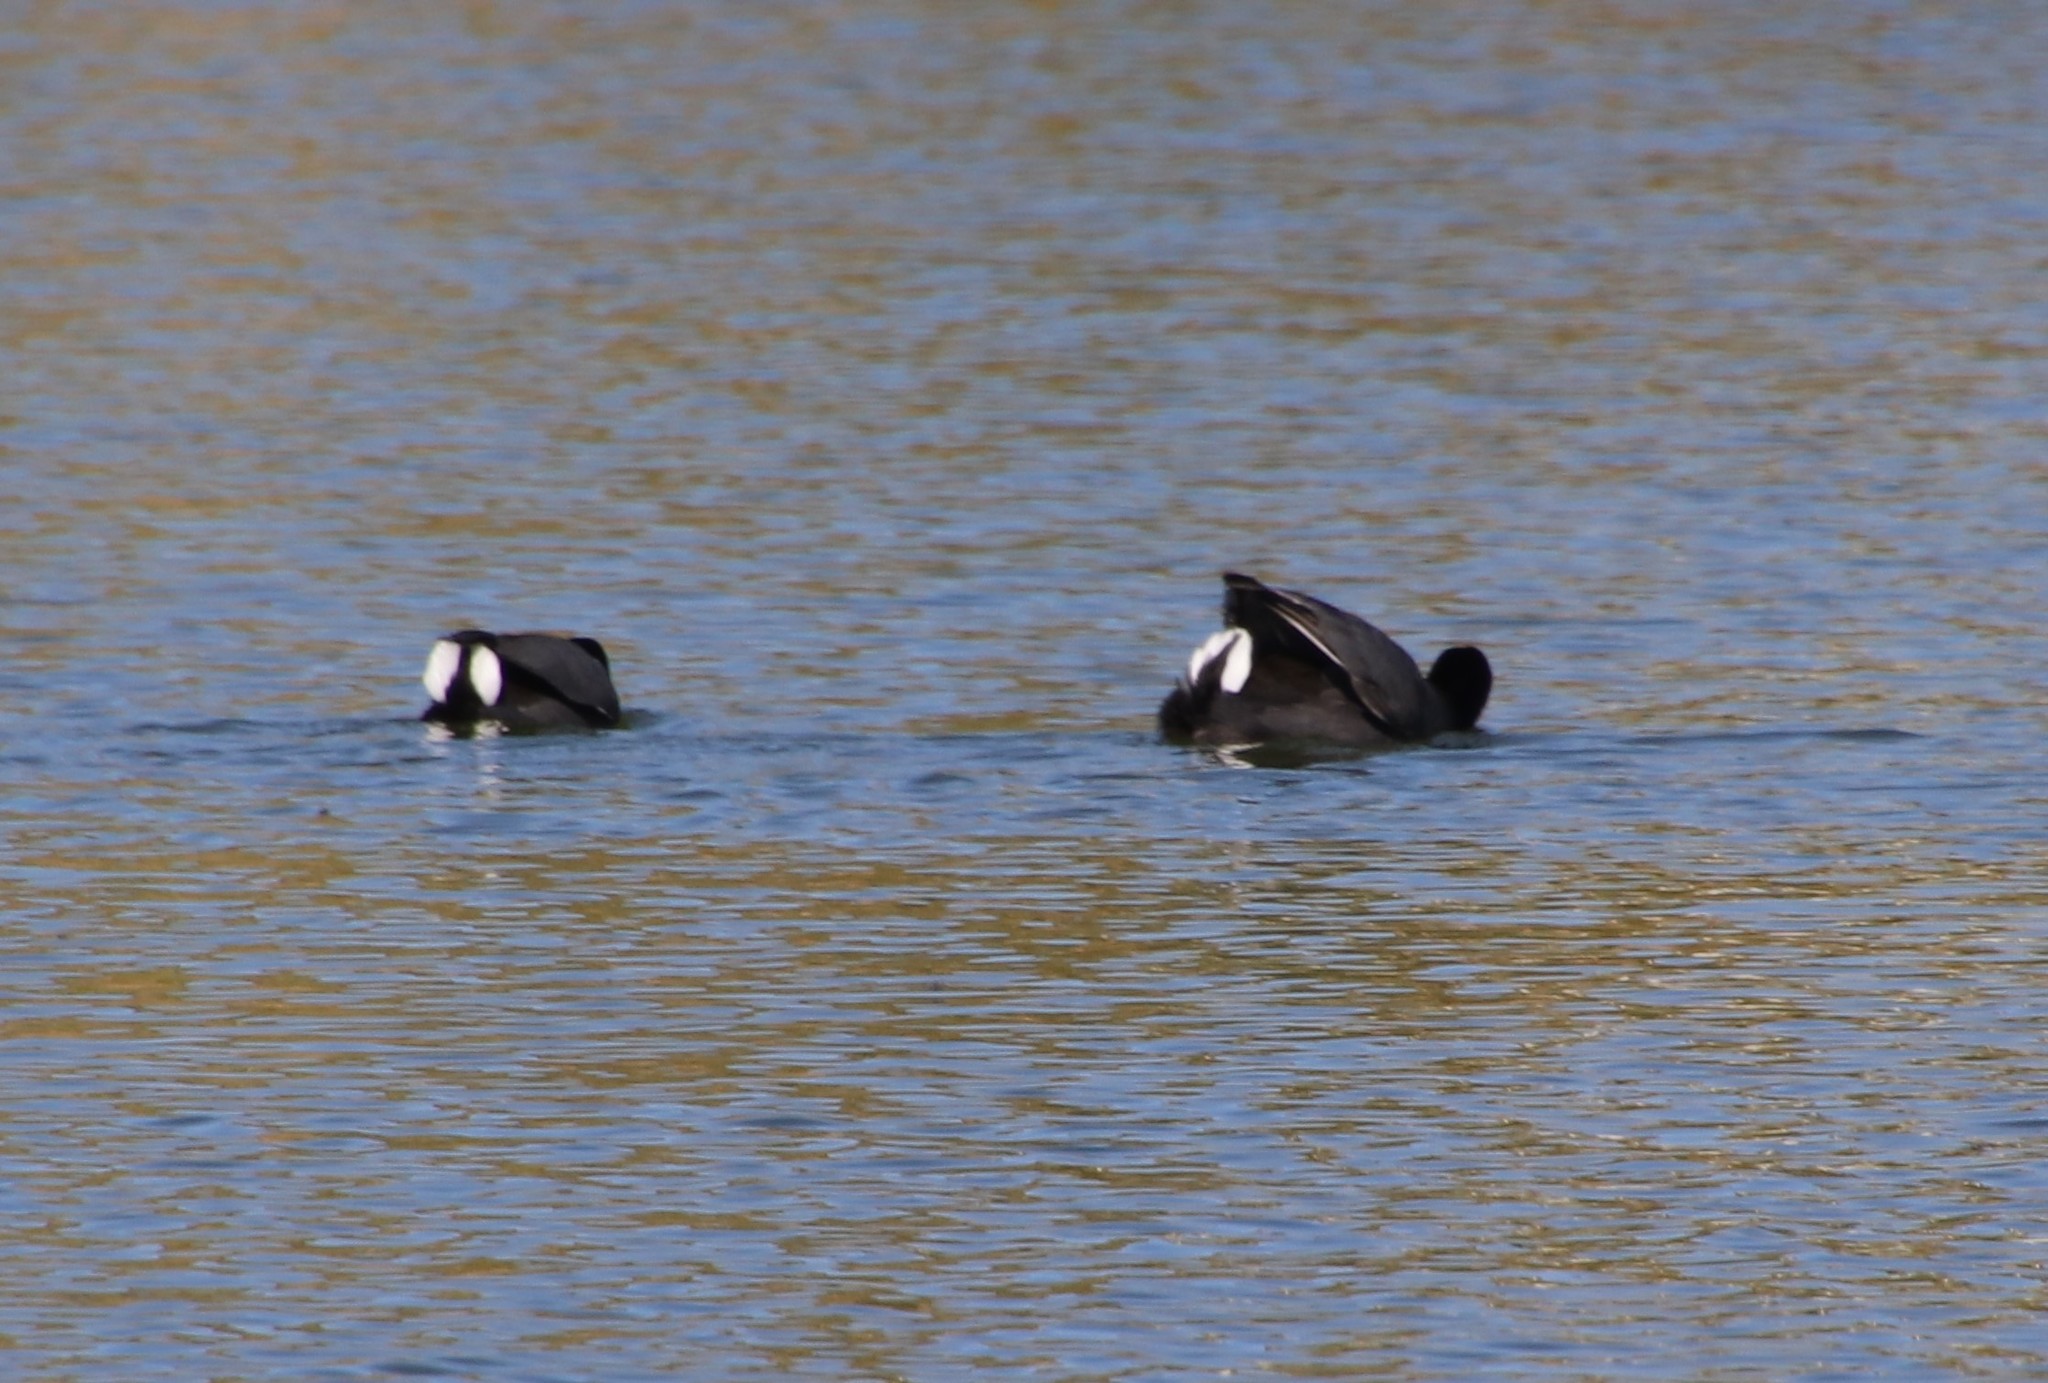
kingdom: Animalia
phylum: Chordata
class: Aves
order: Gruiformes
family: Rallidae
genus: Fulica
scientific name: Fulica americana
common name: American coot
